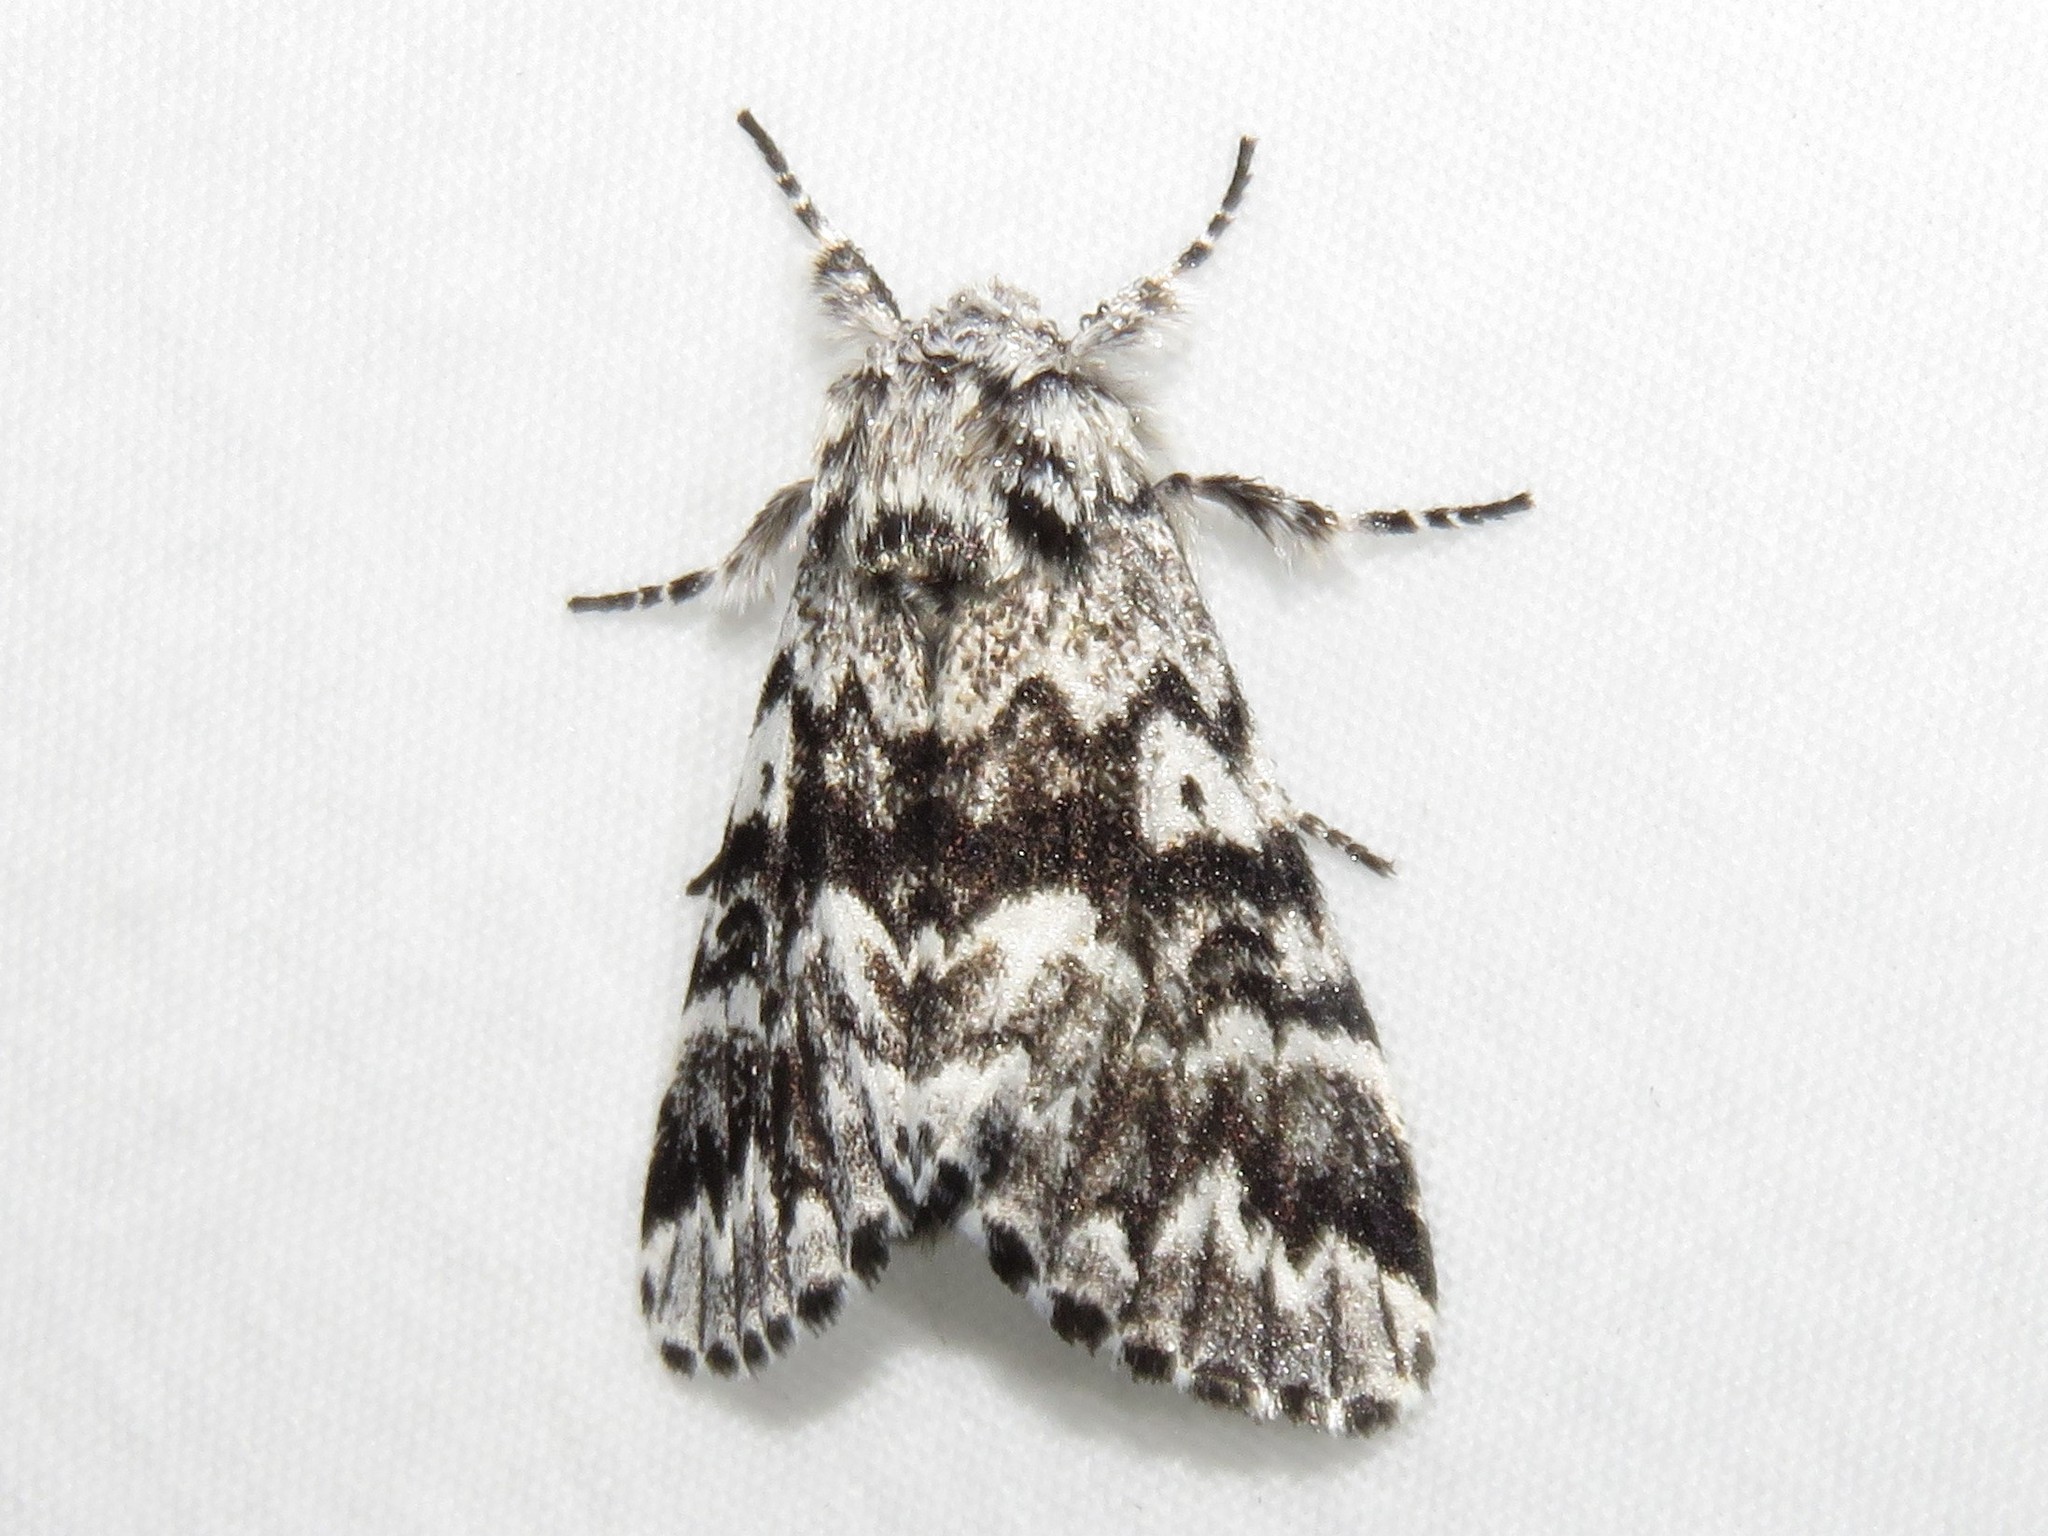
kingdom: Animalia
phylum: Arthropoda
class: Insecta
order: Lepidoptera
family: Noctuidae
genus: Panthea
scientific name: Panthea acronyctoides
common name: Black zigzag moth
